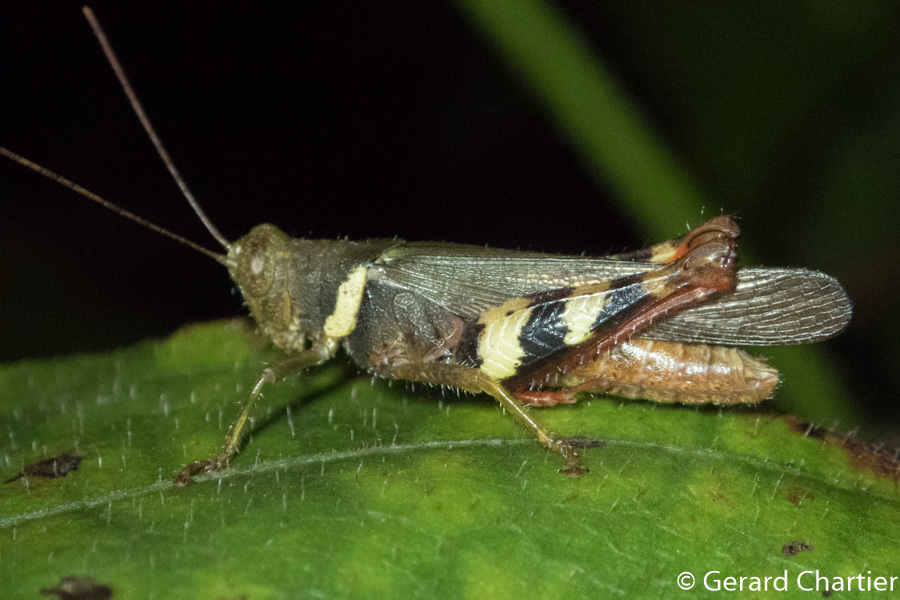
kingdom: Animalia
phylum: Arthropoda
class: Insecta
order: Orthoptera
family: Acrididae
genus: Apalacris
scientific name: Apalacris varicornis
